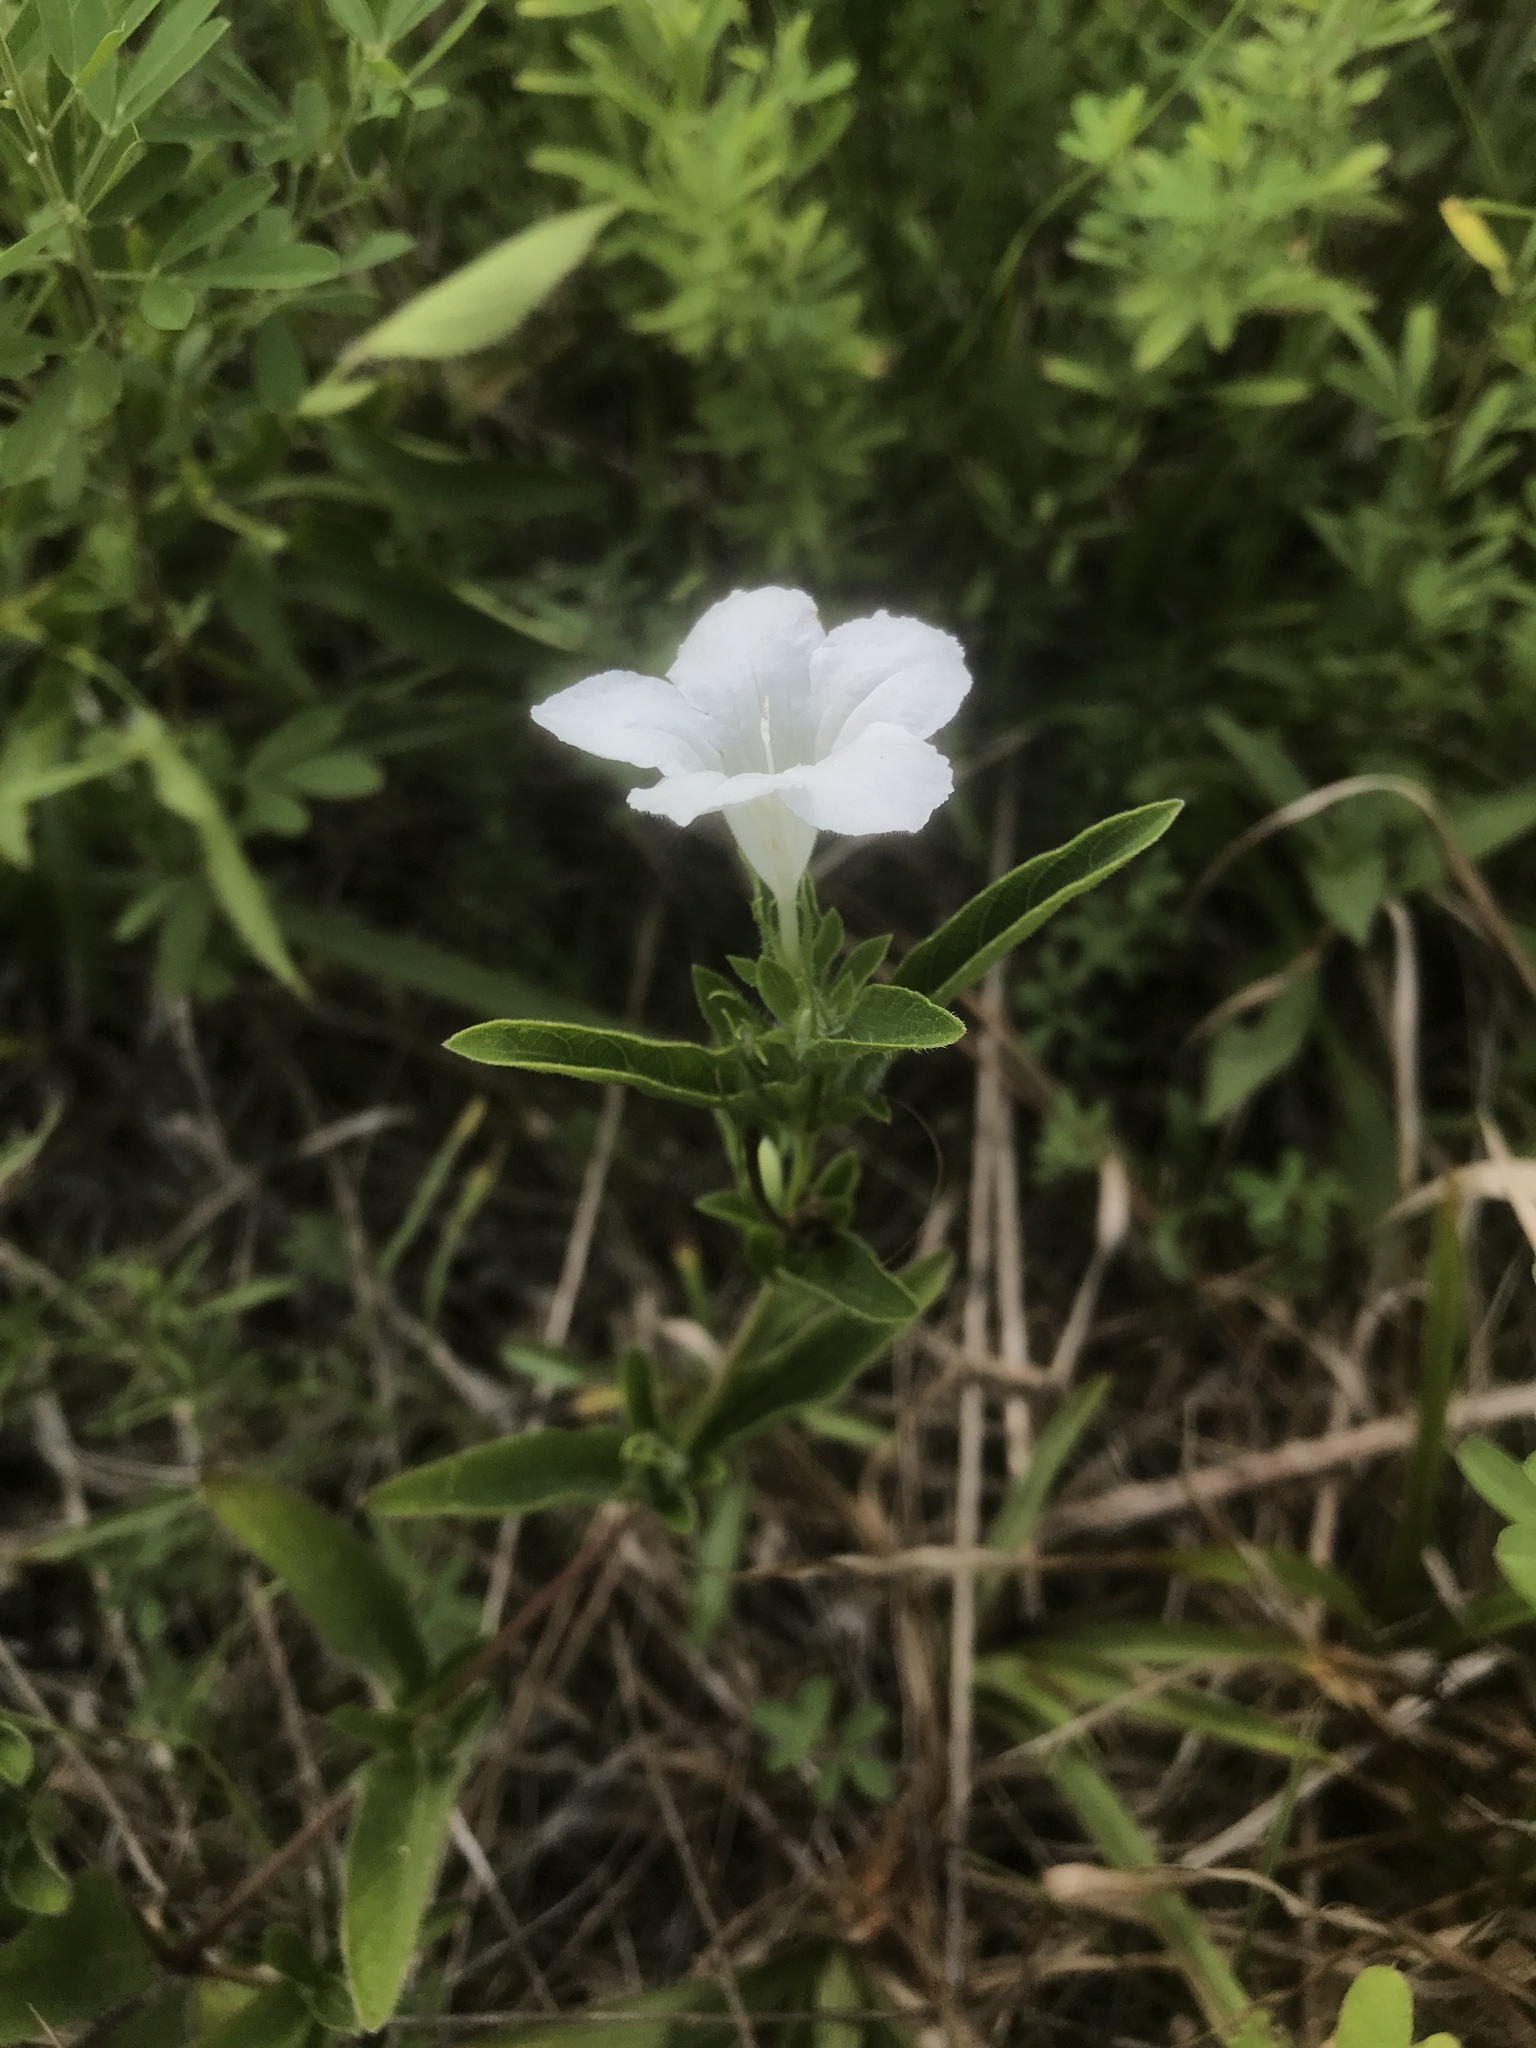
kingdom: Plantae
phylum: Tracheophyta
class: Magnoliopsida
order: Lamiales
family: Acanthaceae
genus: Ruellia
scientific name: Ruellia humilis
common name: Fringe-leaf ruellia
